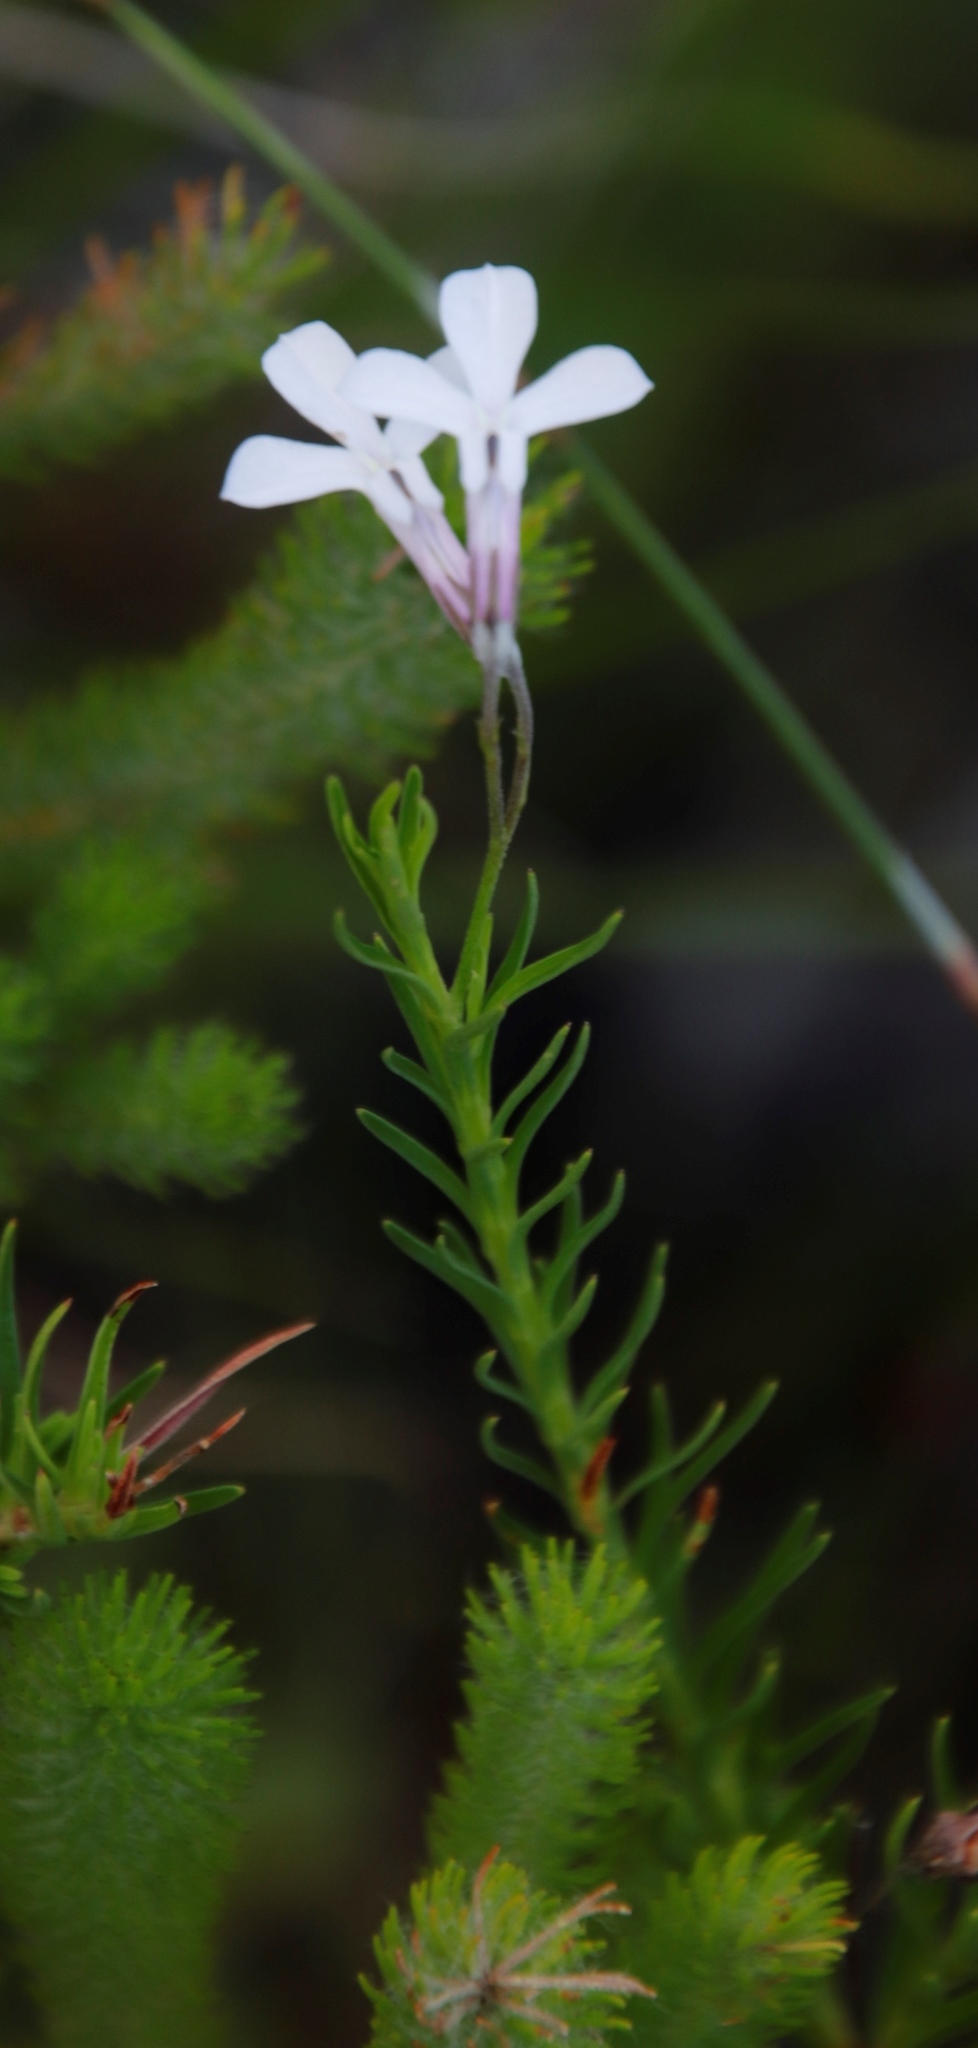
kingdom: Plantae
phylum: Tracheophyta
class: Magnoliopsida
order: Asterales
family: Campanulaceae
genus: Lobelia
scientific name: Lobelia pinifolia
